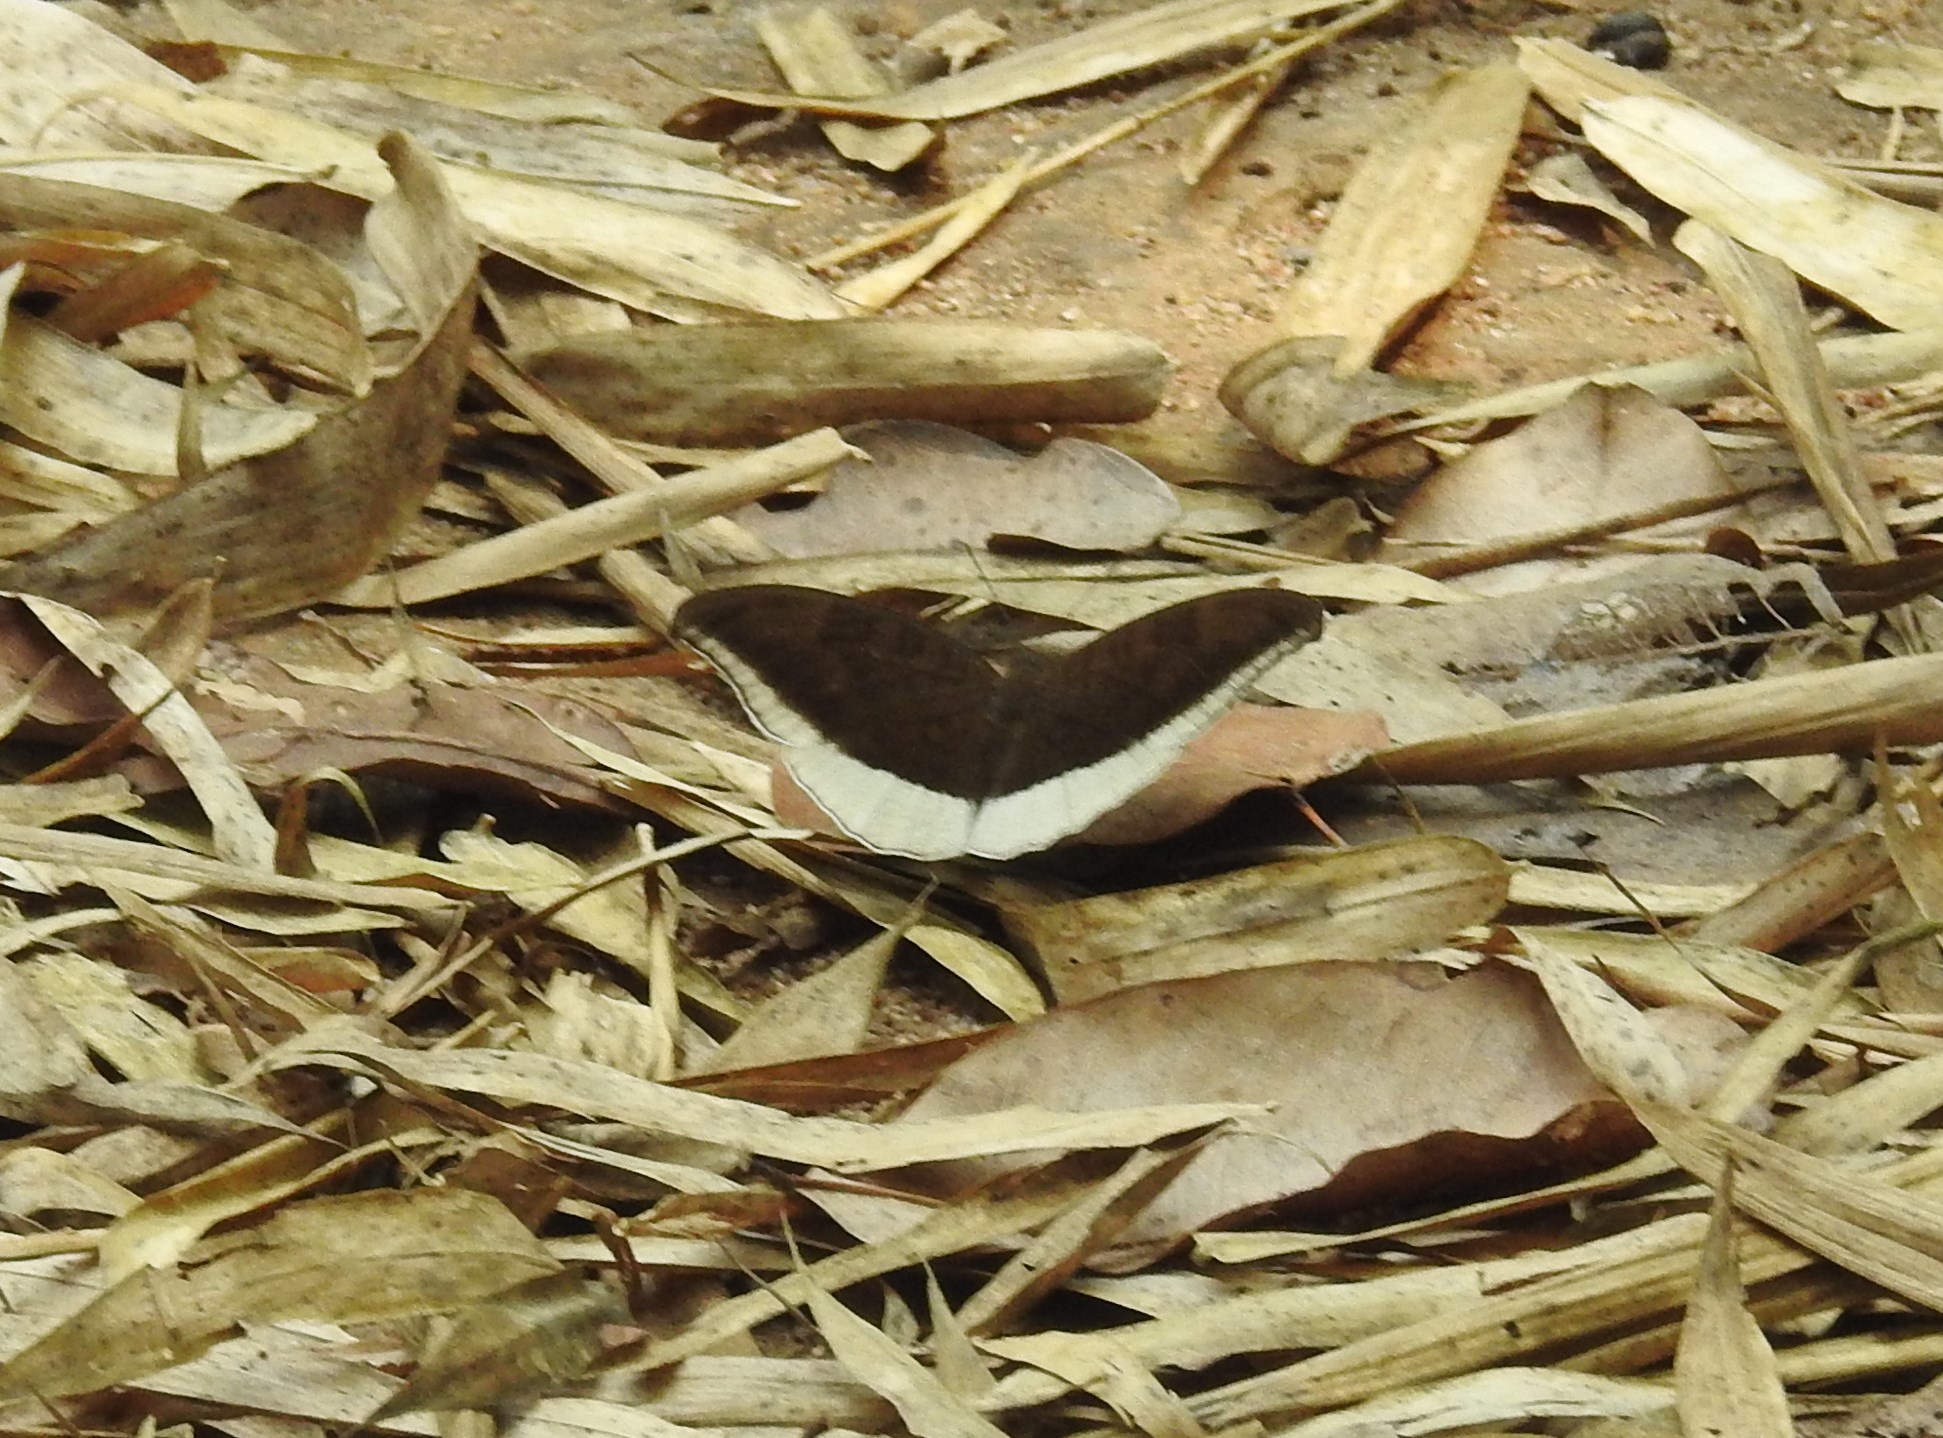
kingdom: Animalia
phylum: Arthropoda
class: Insecta
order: Lepidoptera
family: Nymphalidae
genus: Tanaecia
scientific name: Tanaecia lepidea
